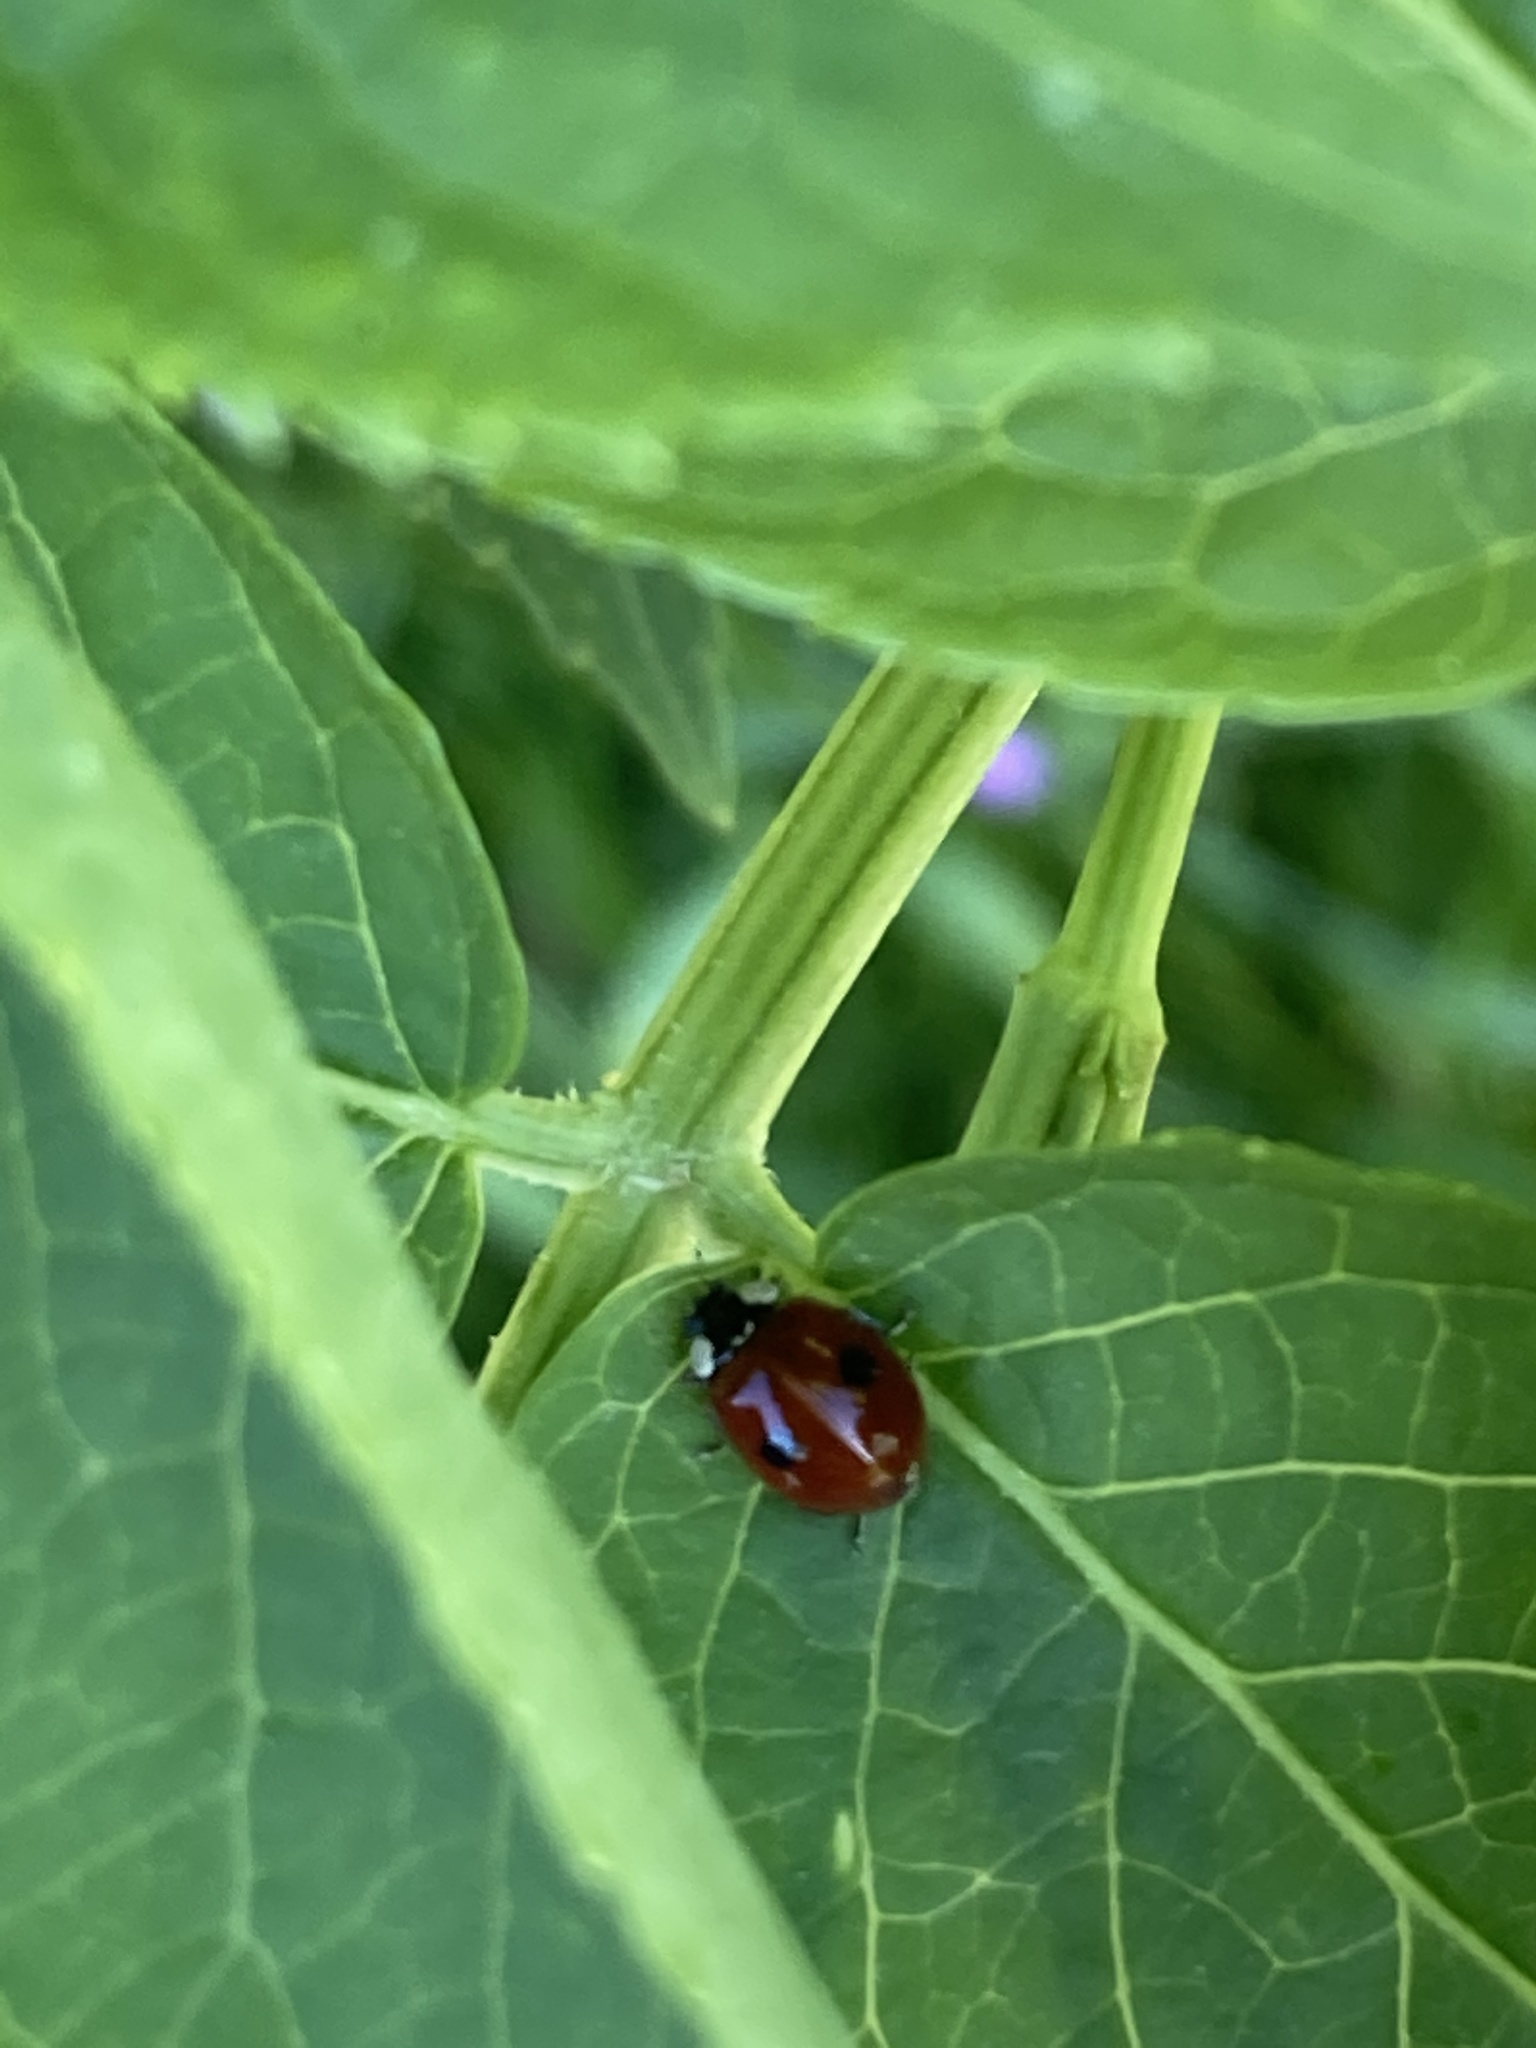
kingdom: Animalia
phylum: Arthropoda
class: Insecta
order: Coleoptera
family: Coccinellidae
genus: Adalia
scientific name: Adalia bipunctata
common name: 2-spot ladybird
